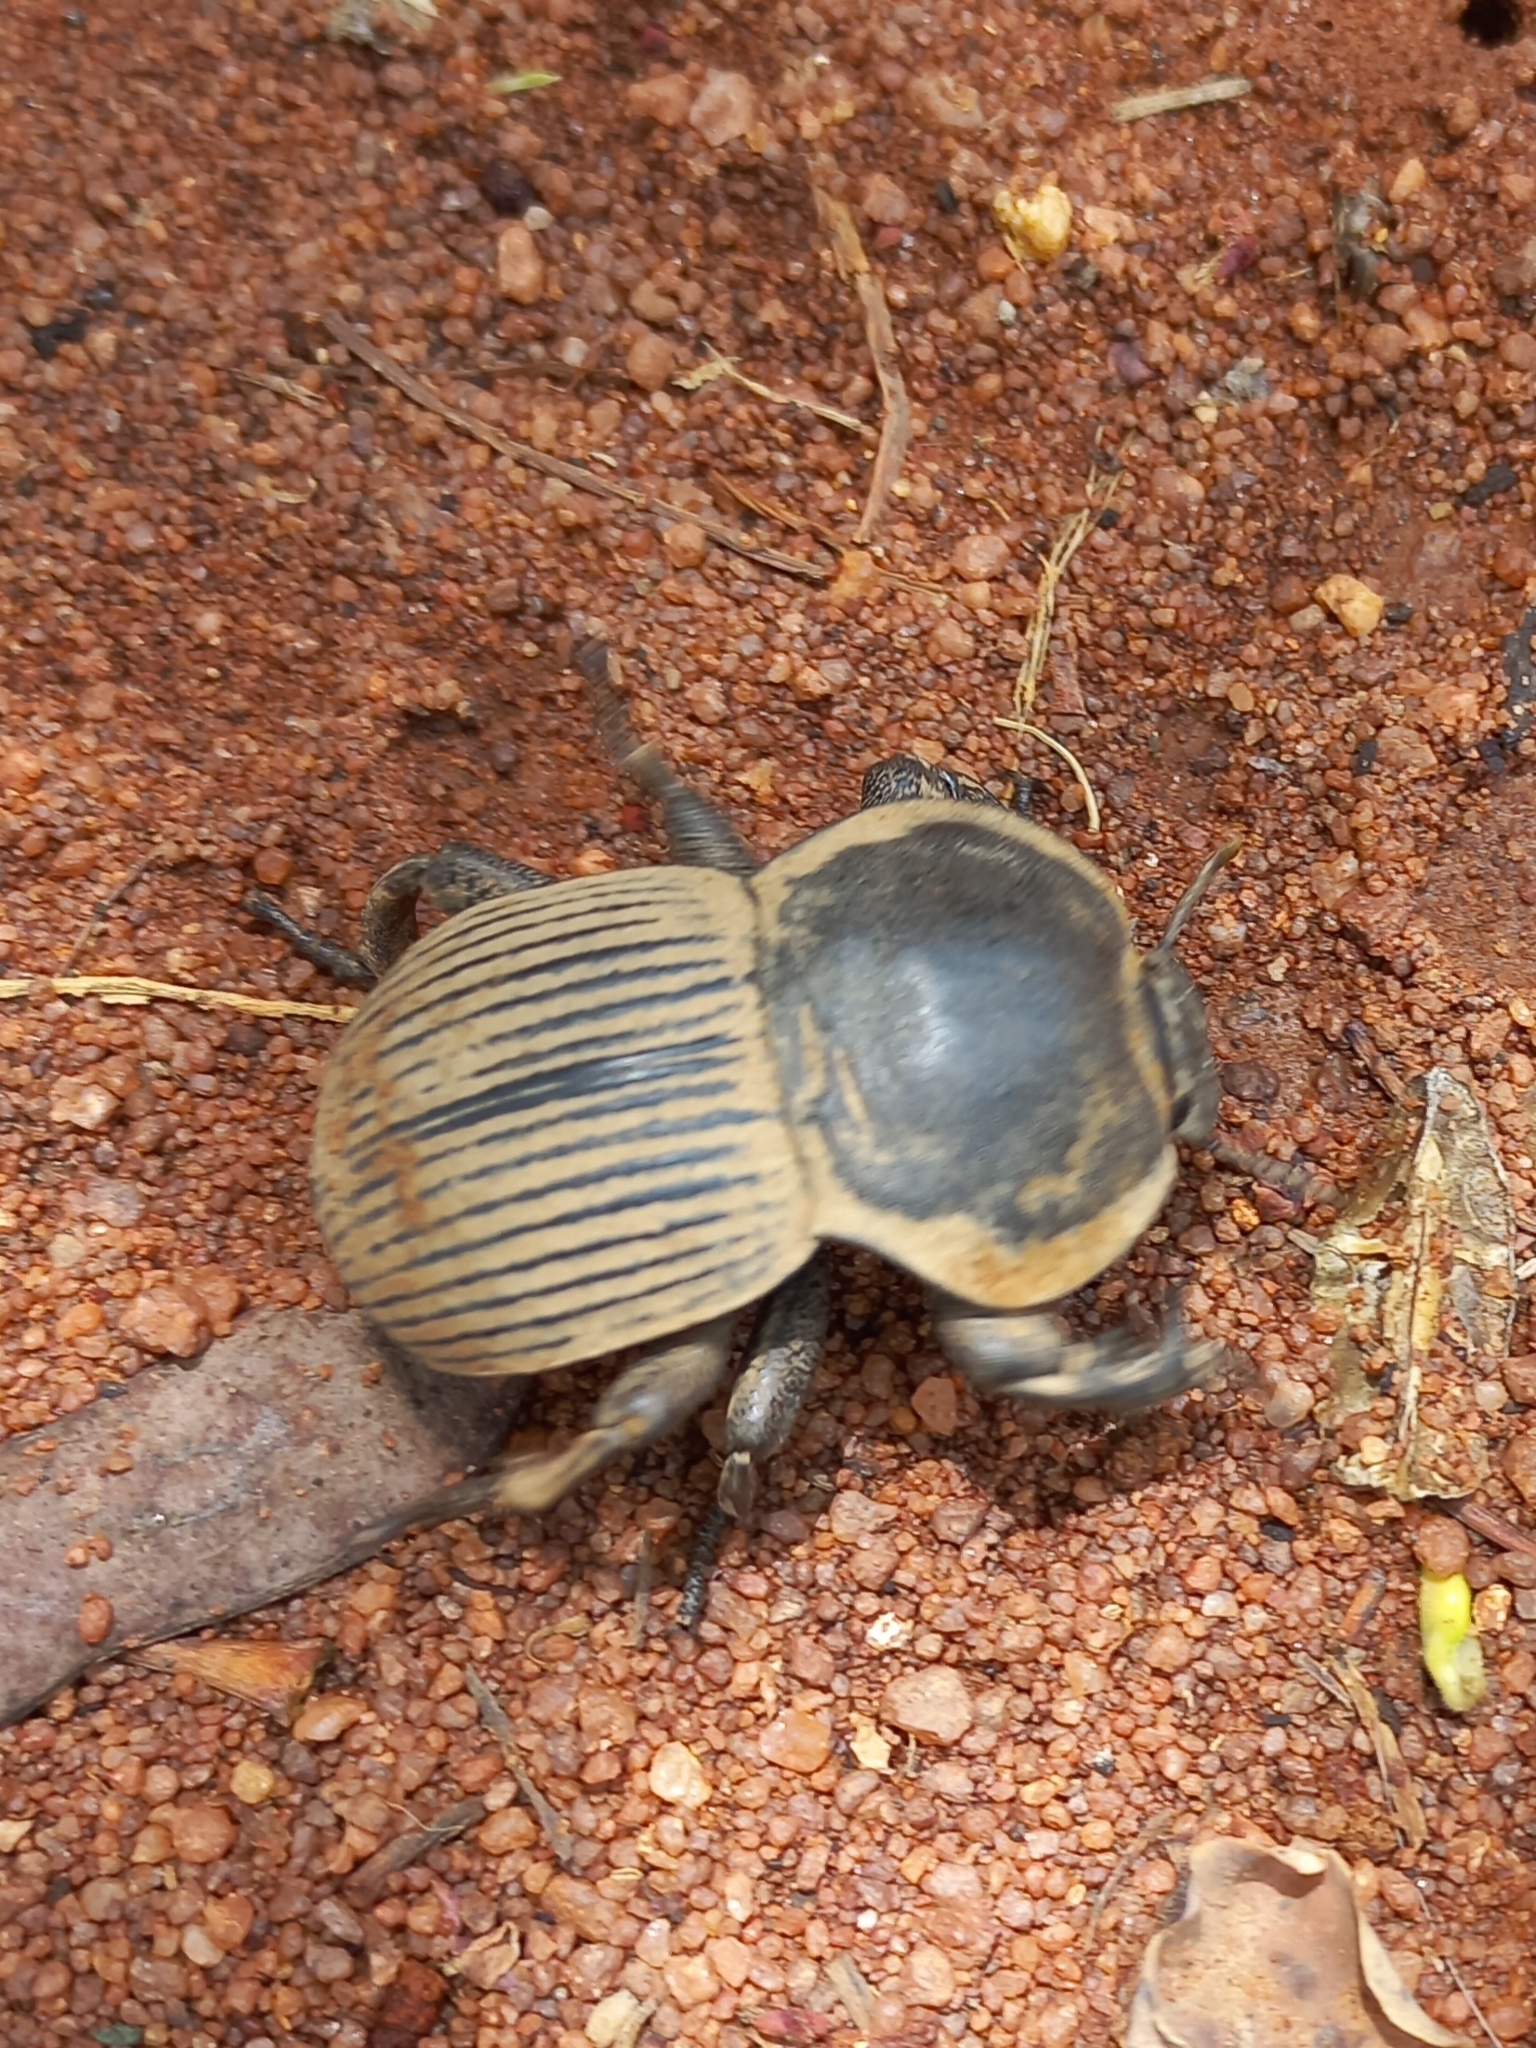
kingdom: Animalia
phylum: Arthropoda
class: Insecta
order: Coleoptera
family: Tenebrionidae
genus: Anomalipus
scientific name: Anomalipus
